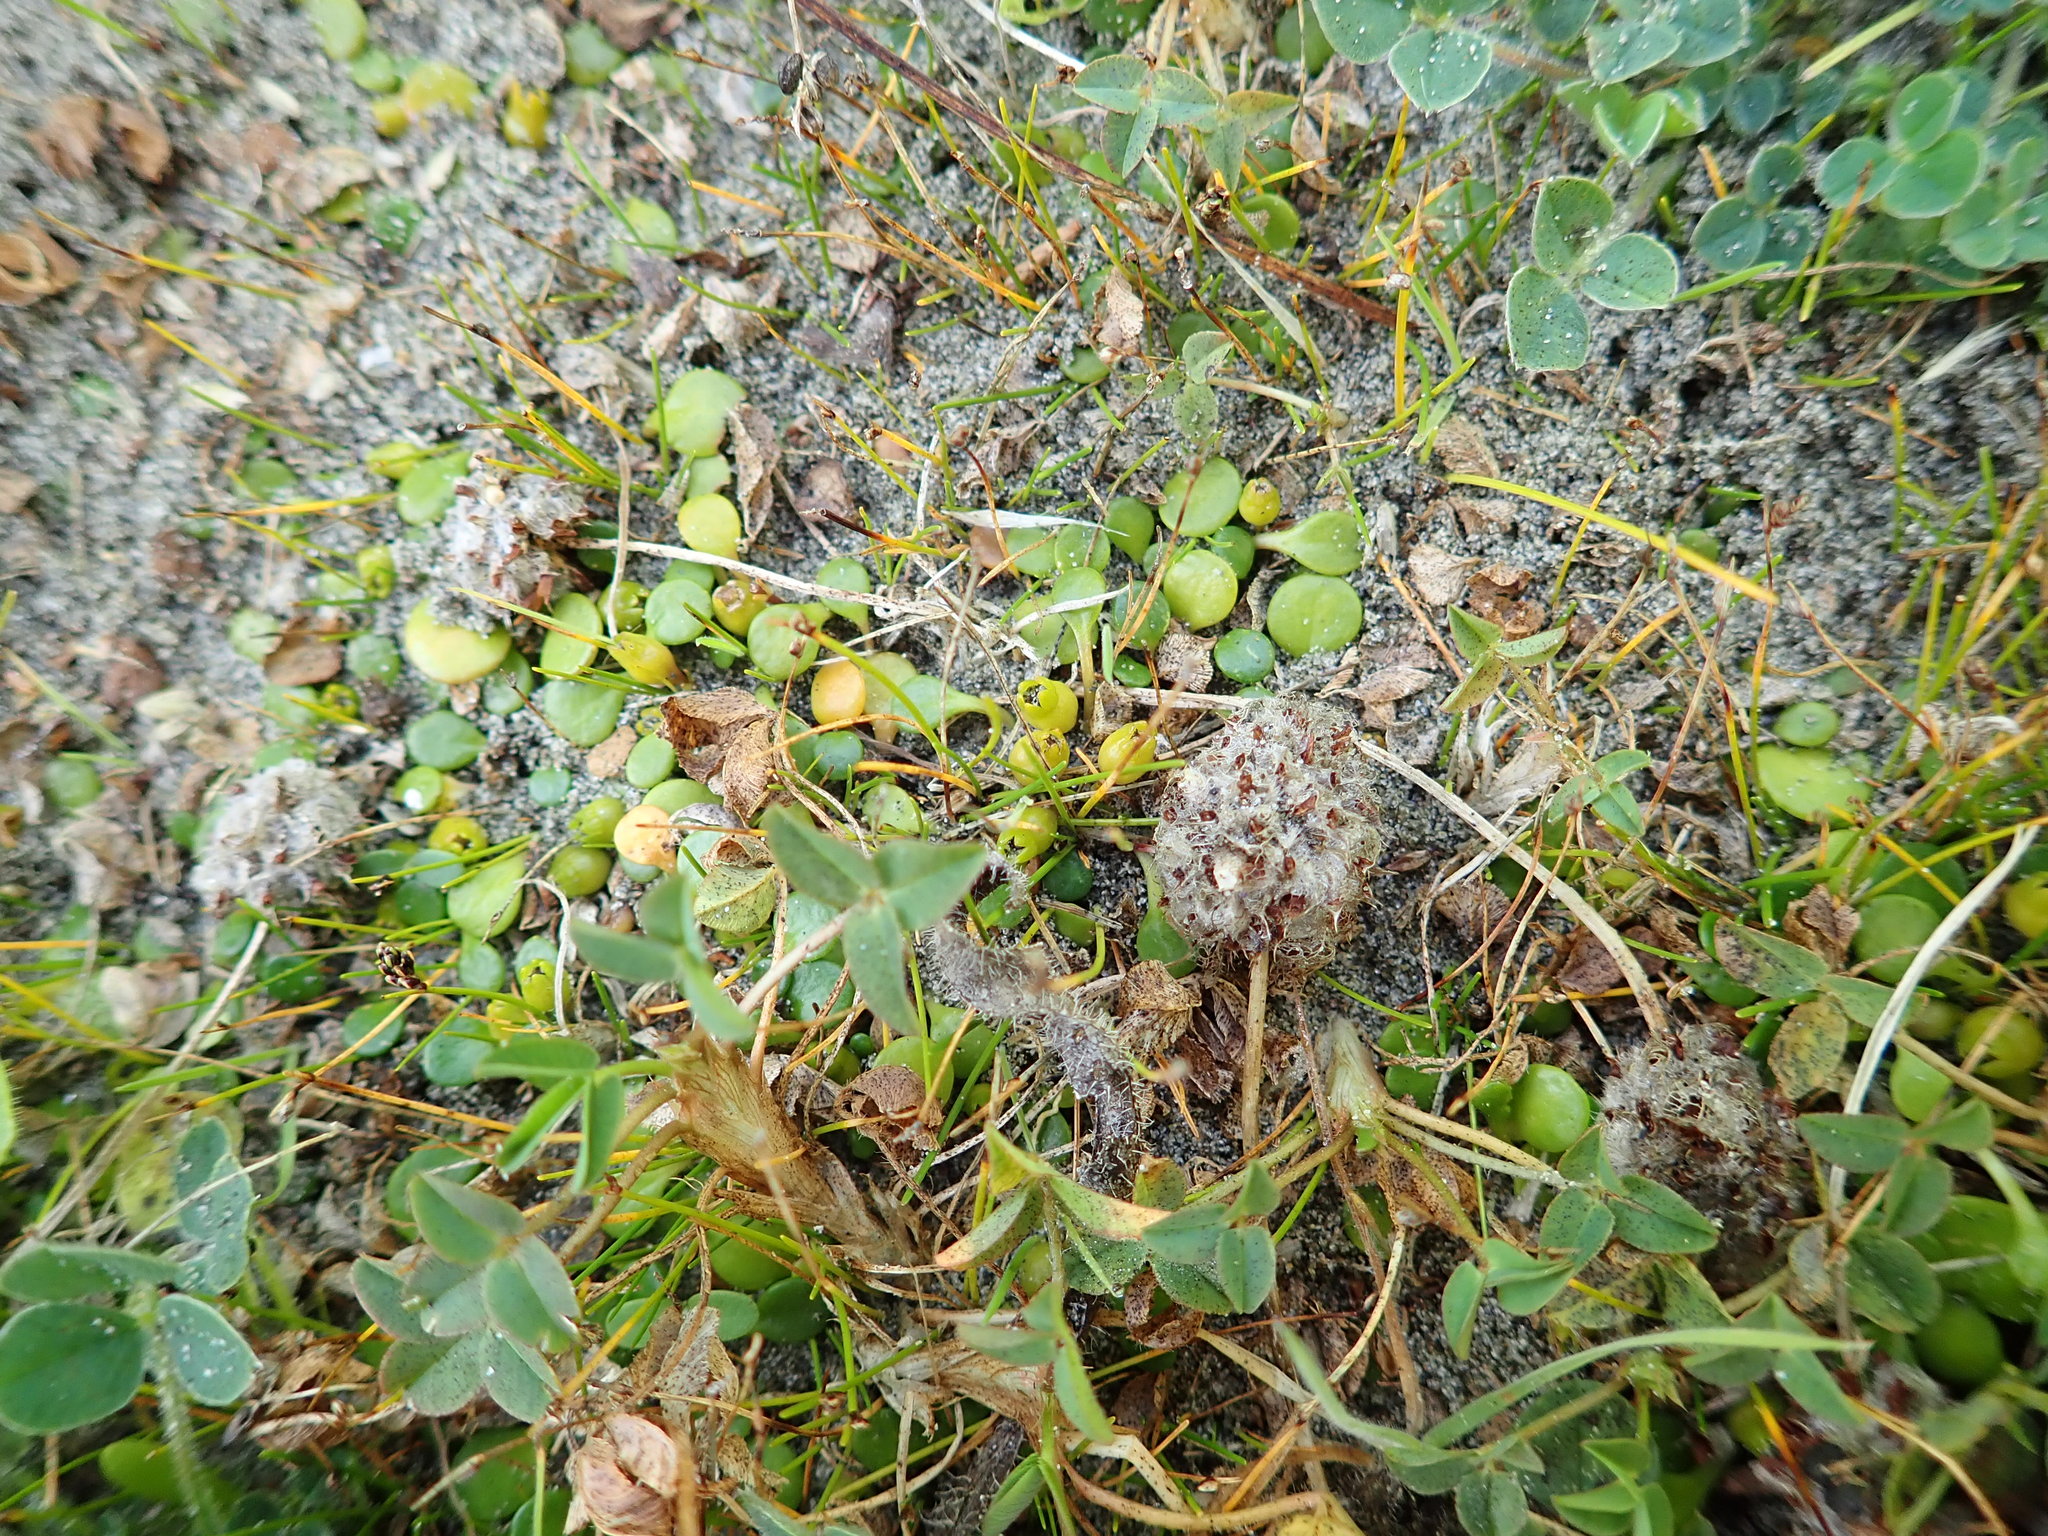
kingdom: Plantae
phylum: Tracheophyta
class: Magnoliopsida
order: Asterales
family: Goodeniaceae
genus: Goodenia
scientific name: Goodenia heenanii
